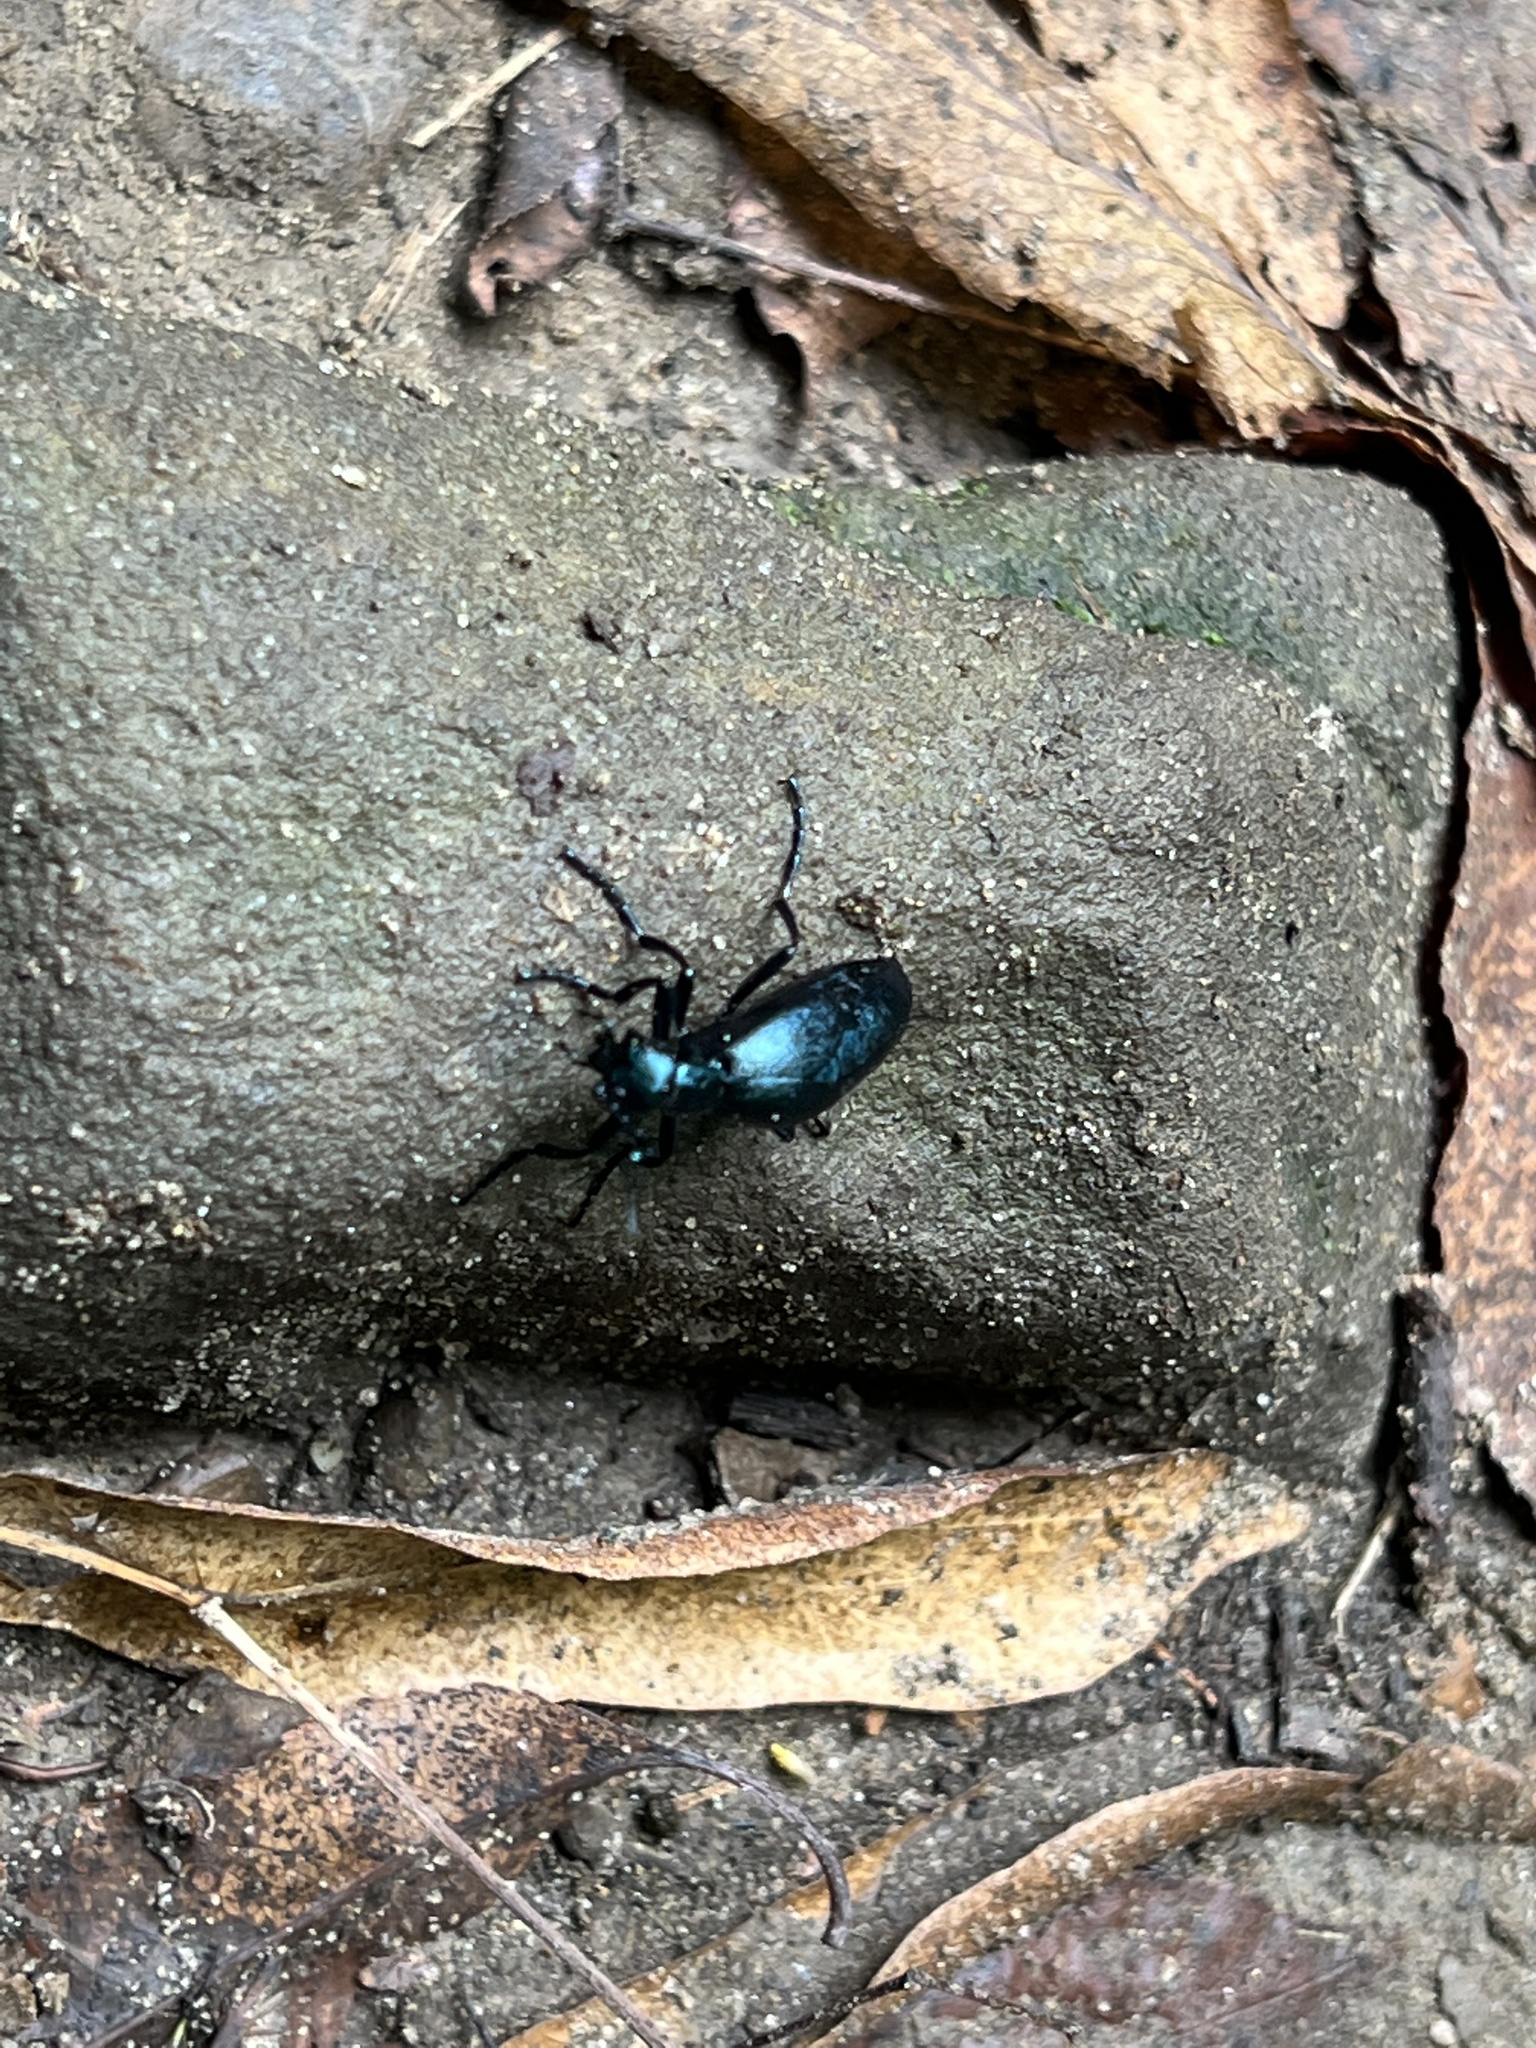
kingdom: Animalia
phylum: Arthropoda
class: Insecta
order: Coleoptera
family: Meloidae
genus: Meloe
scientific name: Meloe impressus
